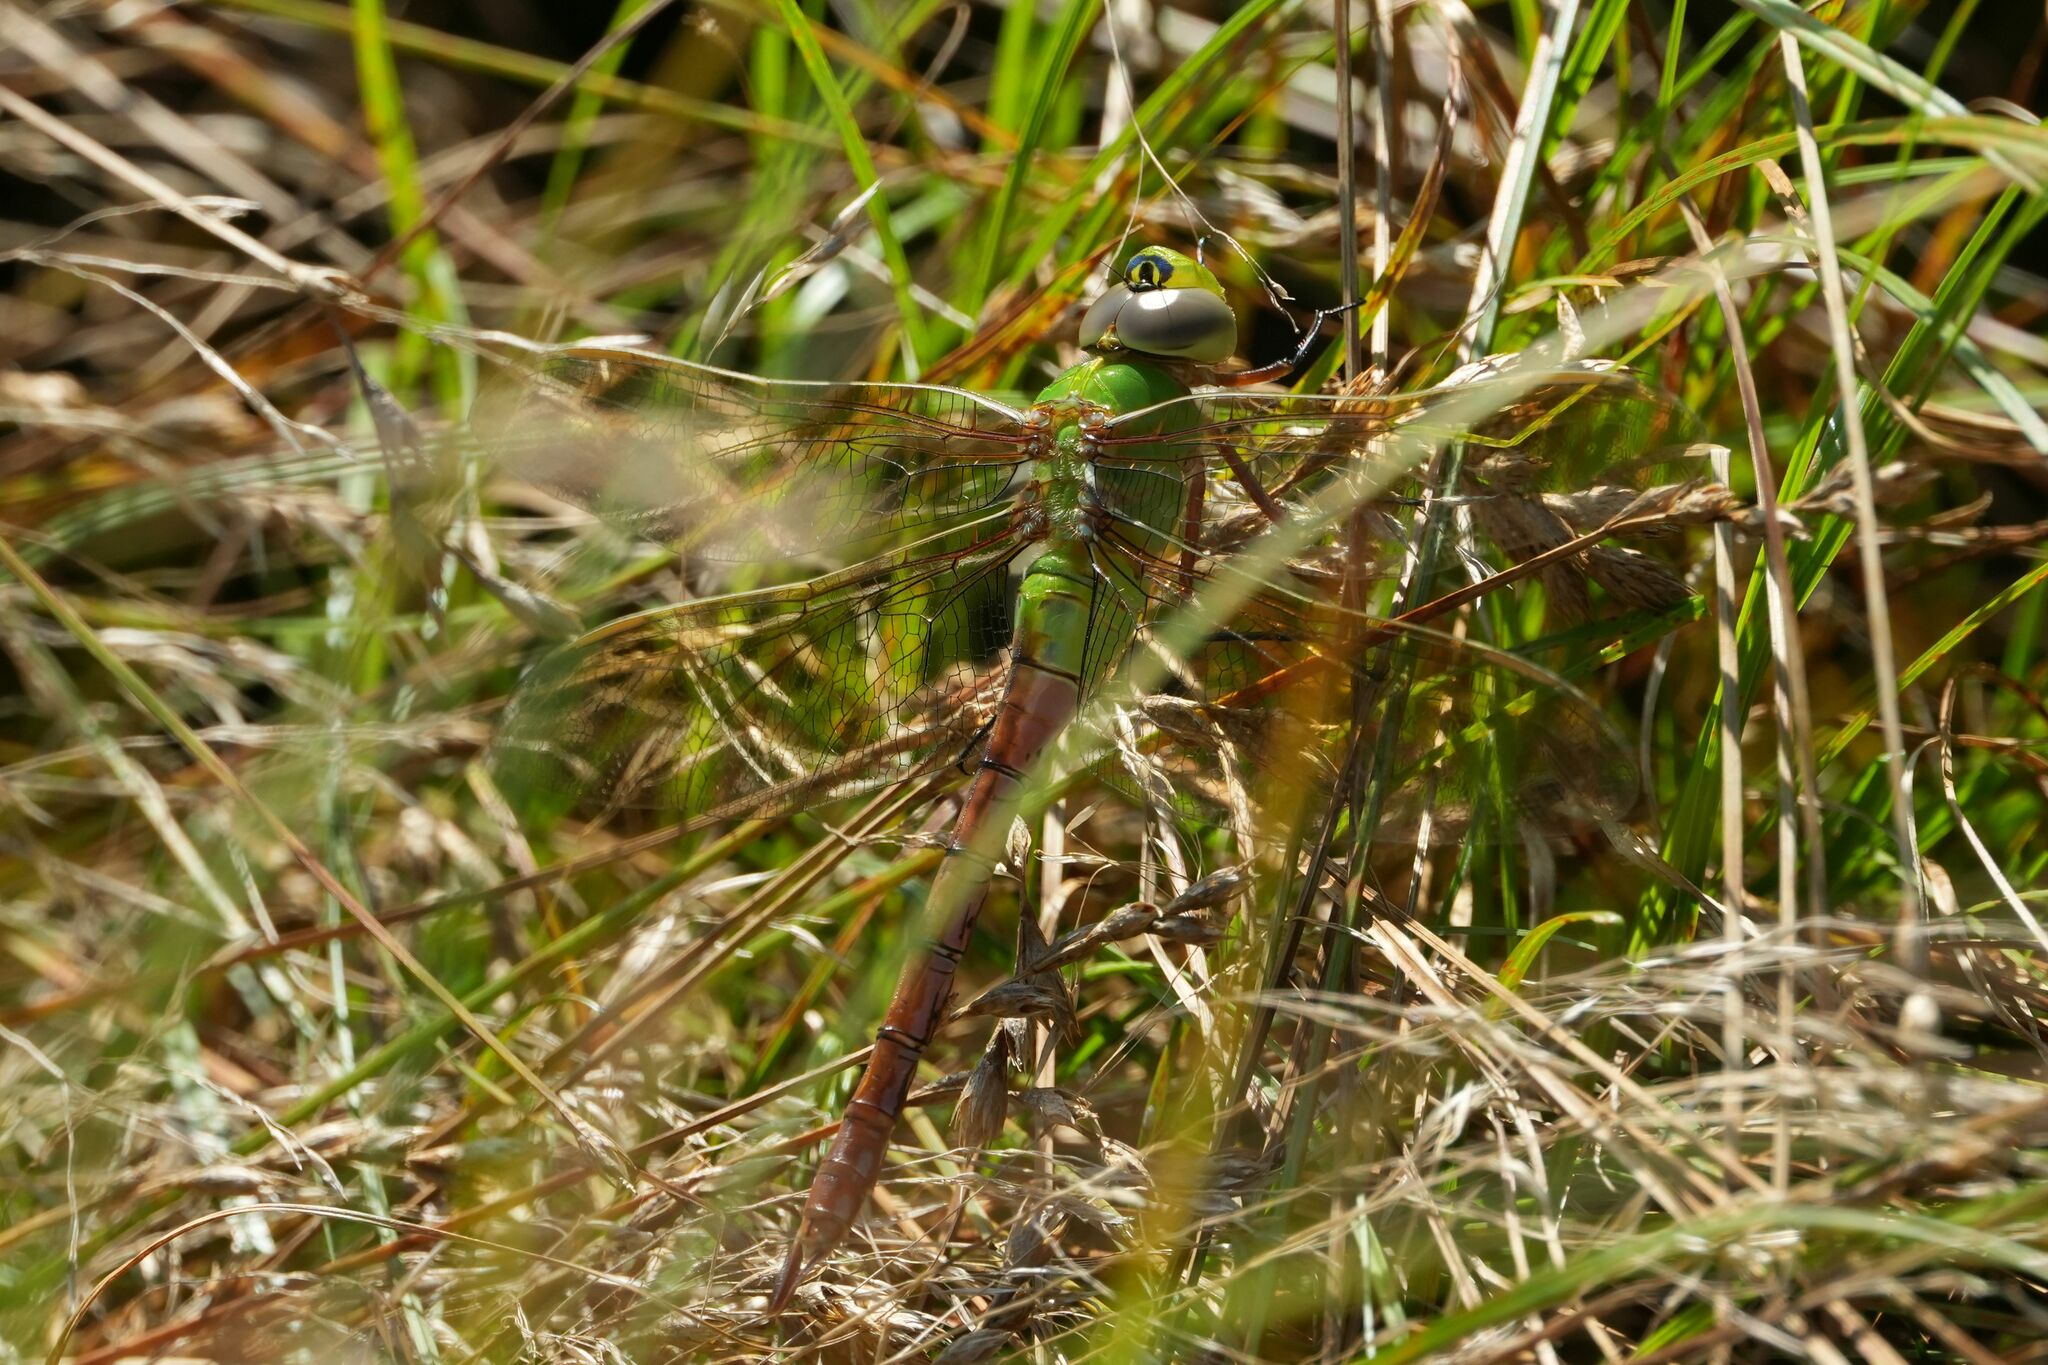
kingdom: Animalia
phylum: Arthropoda
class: Insecta
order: Odonata
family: Aeshnidae
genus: Anax
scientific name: Anax junius
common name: Common green darner
